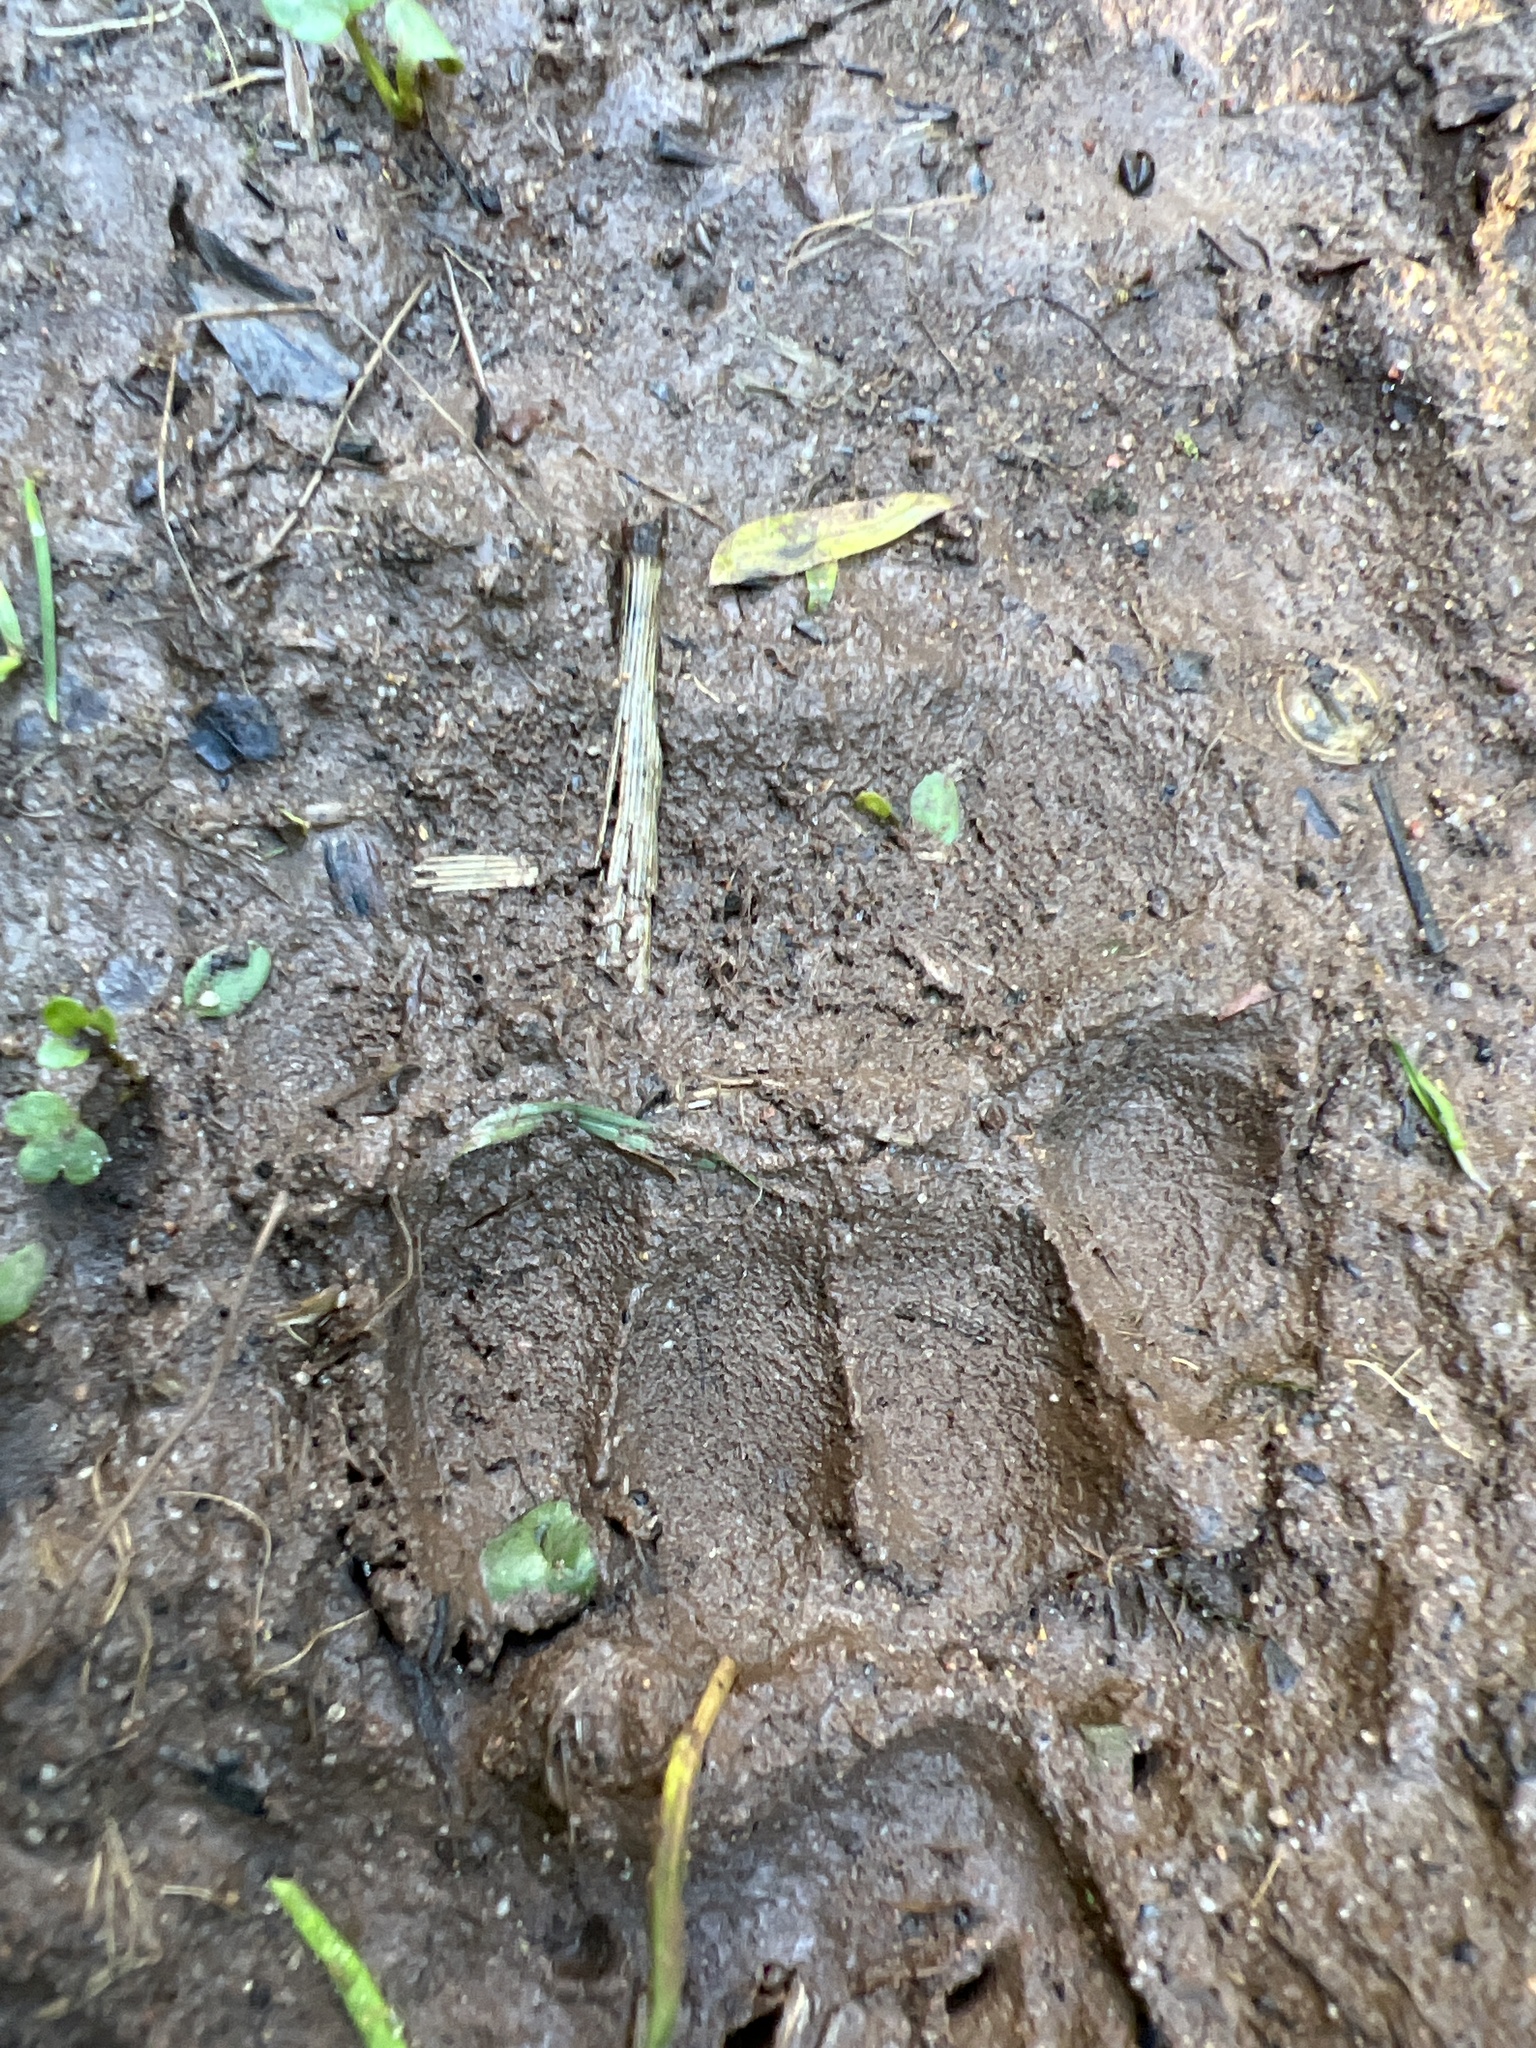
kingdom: Animalia
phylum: Chordata
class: Mammalia
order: Carnivora
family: Mustelidae
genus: Meles
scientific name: Meles meles
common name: Eurasian badger
